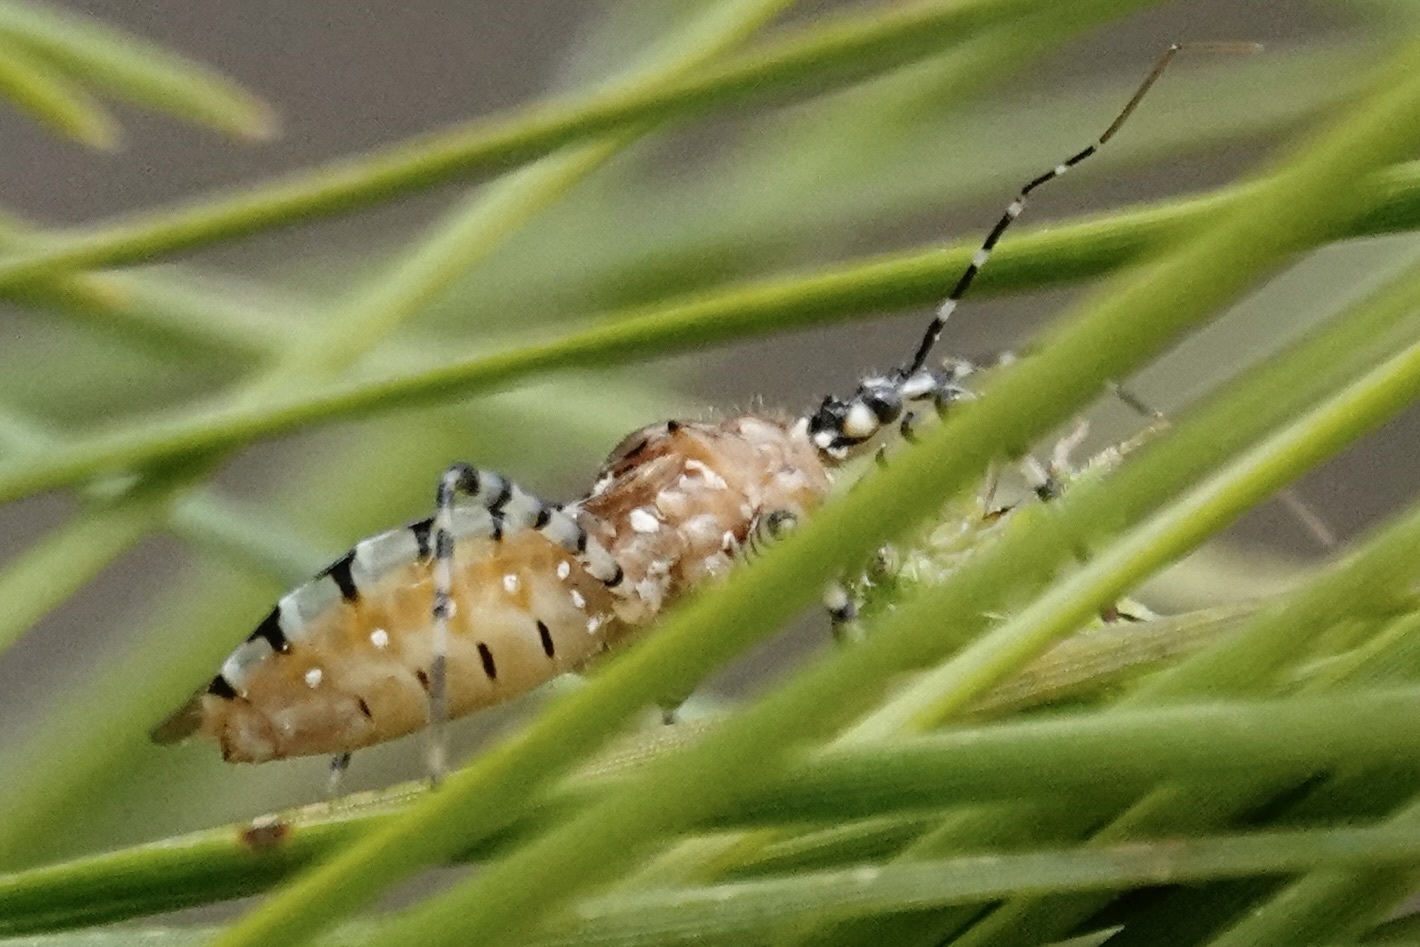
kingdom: Animalia
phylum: Arthropoda
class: Insecta
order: Hemiptera
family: Reduviidae
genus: Pselliopus
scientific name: Pselliopus cinctus
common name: Ringed assassin bug
